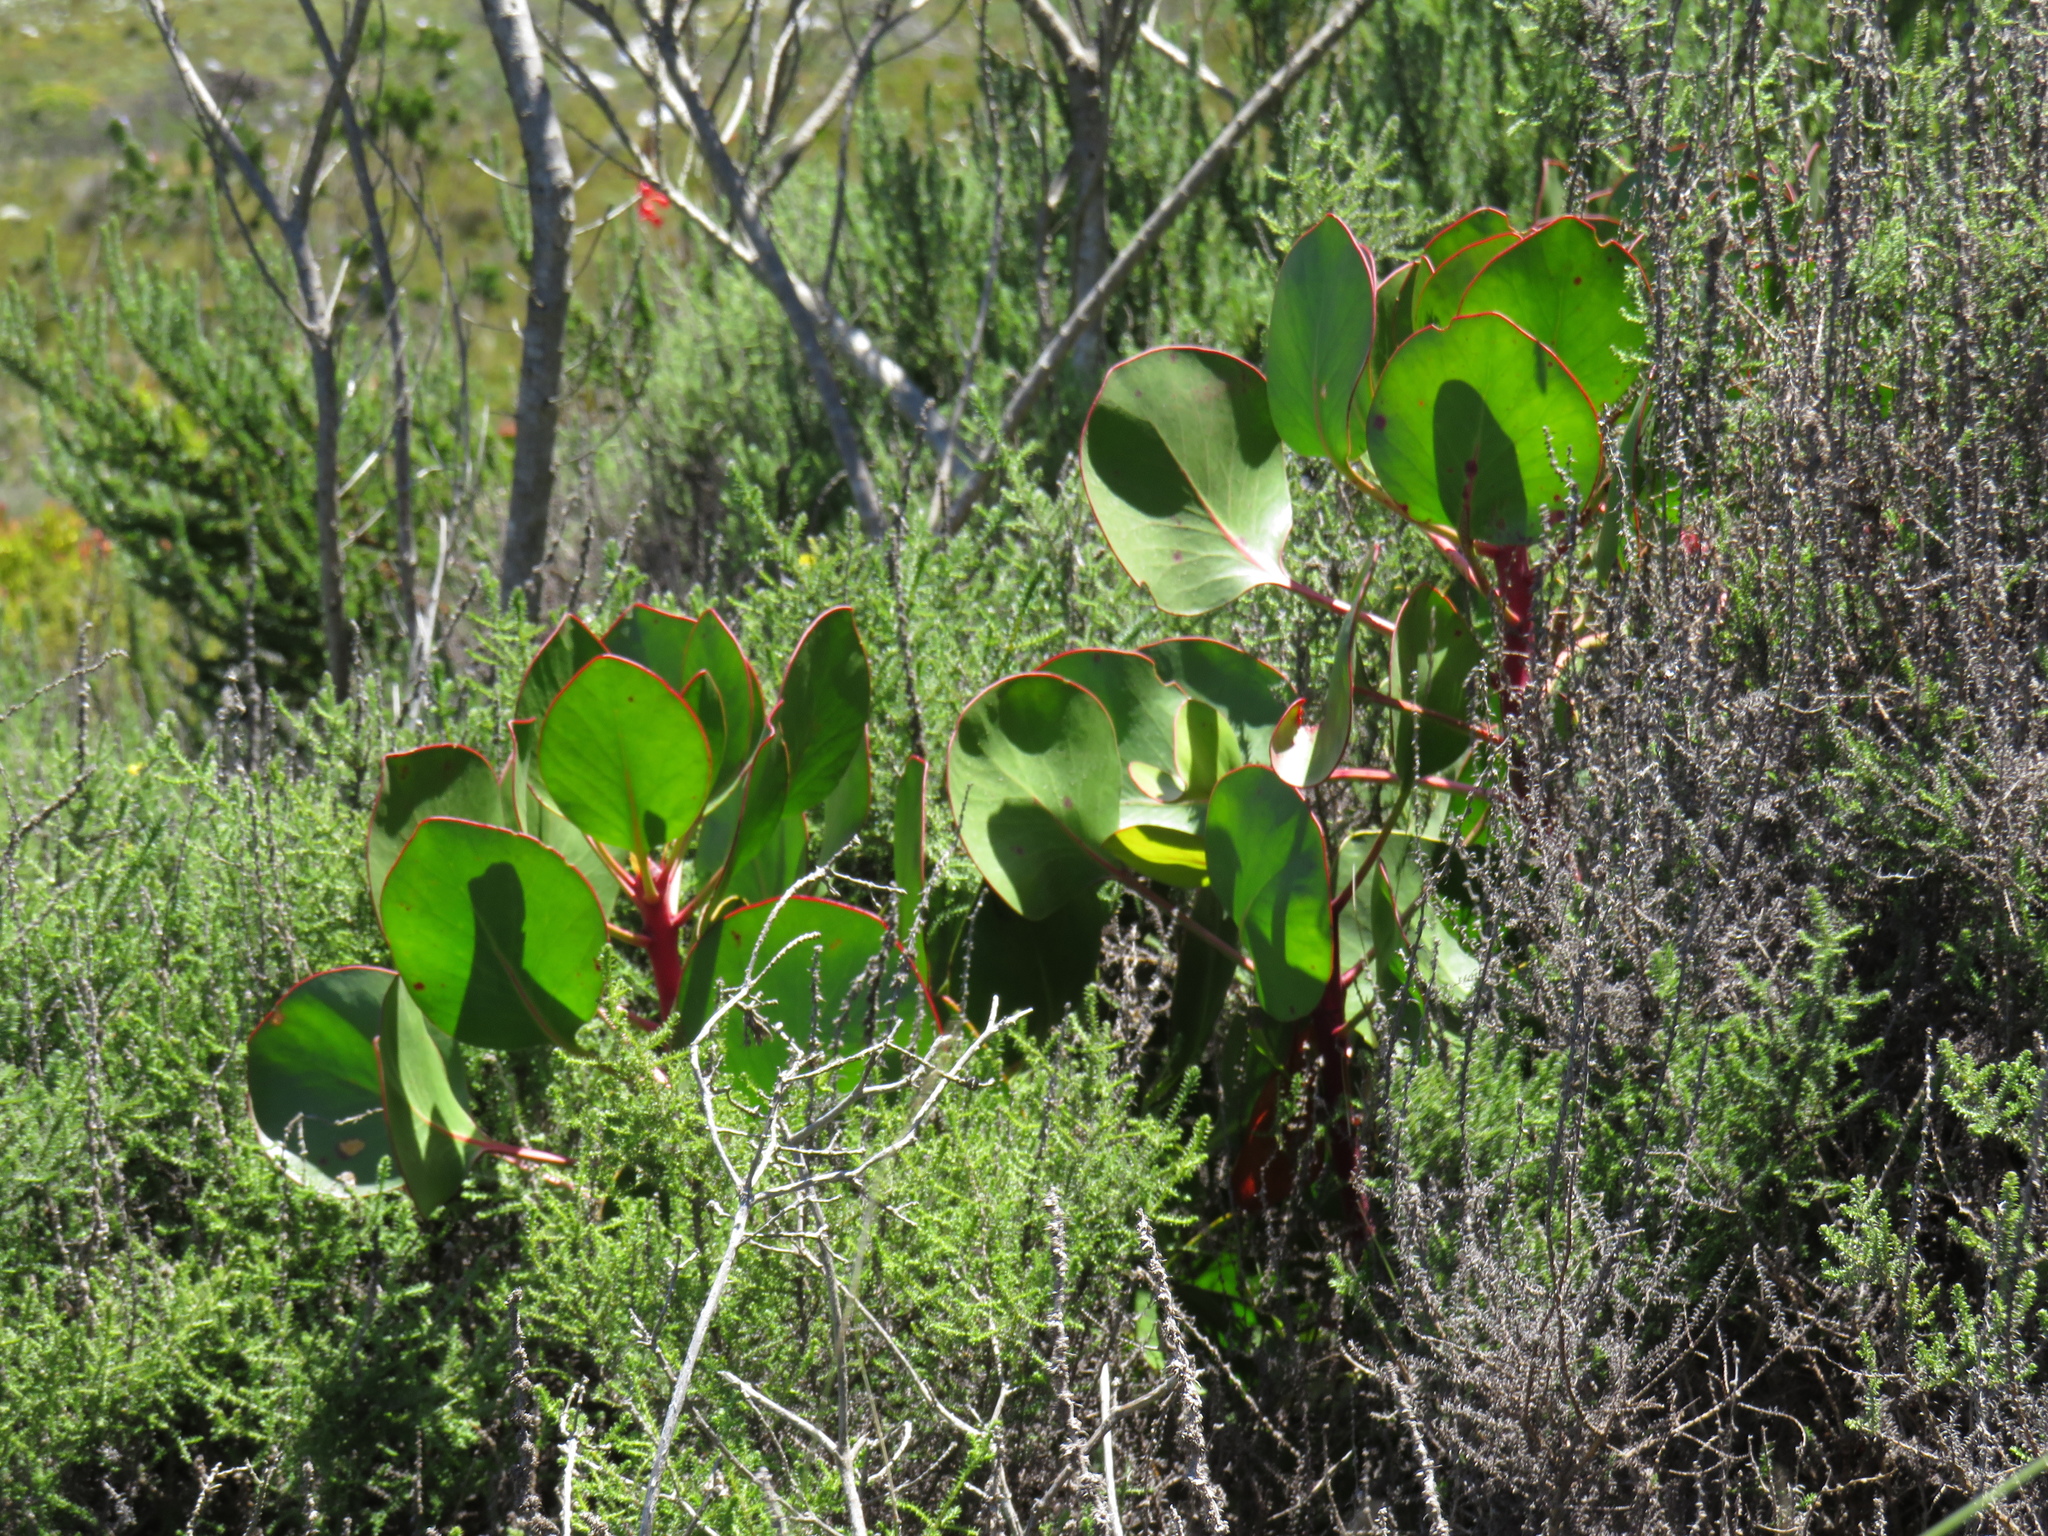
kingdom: Plantae
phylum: Tracheophyta
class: Magnoliopsida
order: Proteales
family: Proteaceae
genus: Protea
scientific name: Protea cynaroides
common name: King protea
